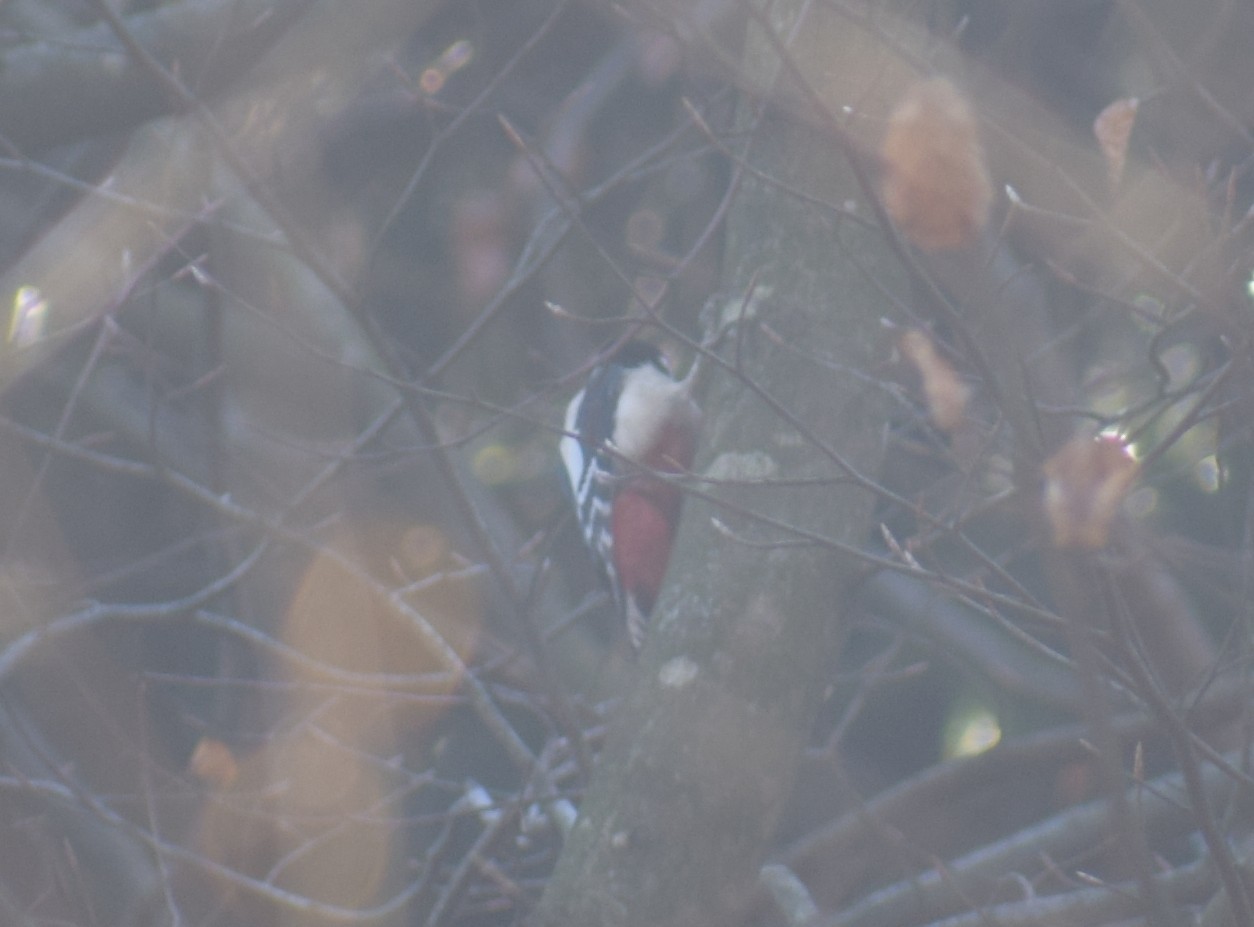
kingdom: Animalia
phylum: Chordata
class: Aves
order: Piciformes
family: Picidae
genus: Dendrocopos
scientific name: Dendrocopos major
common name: Great spotted woodpecker
